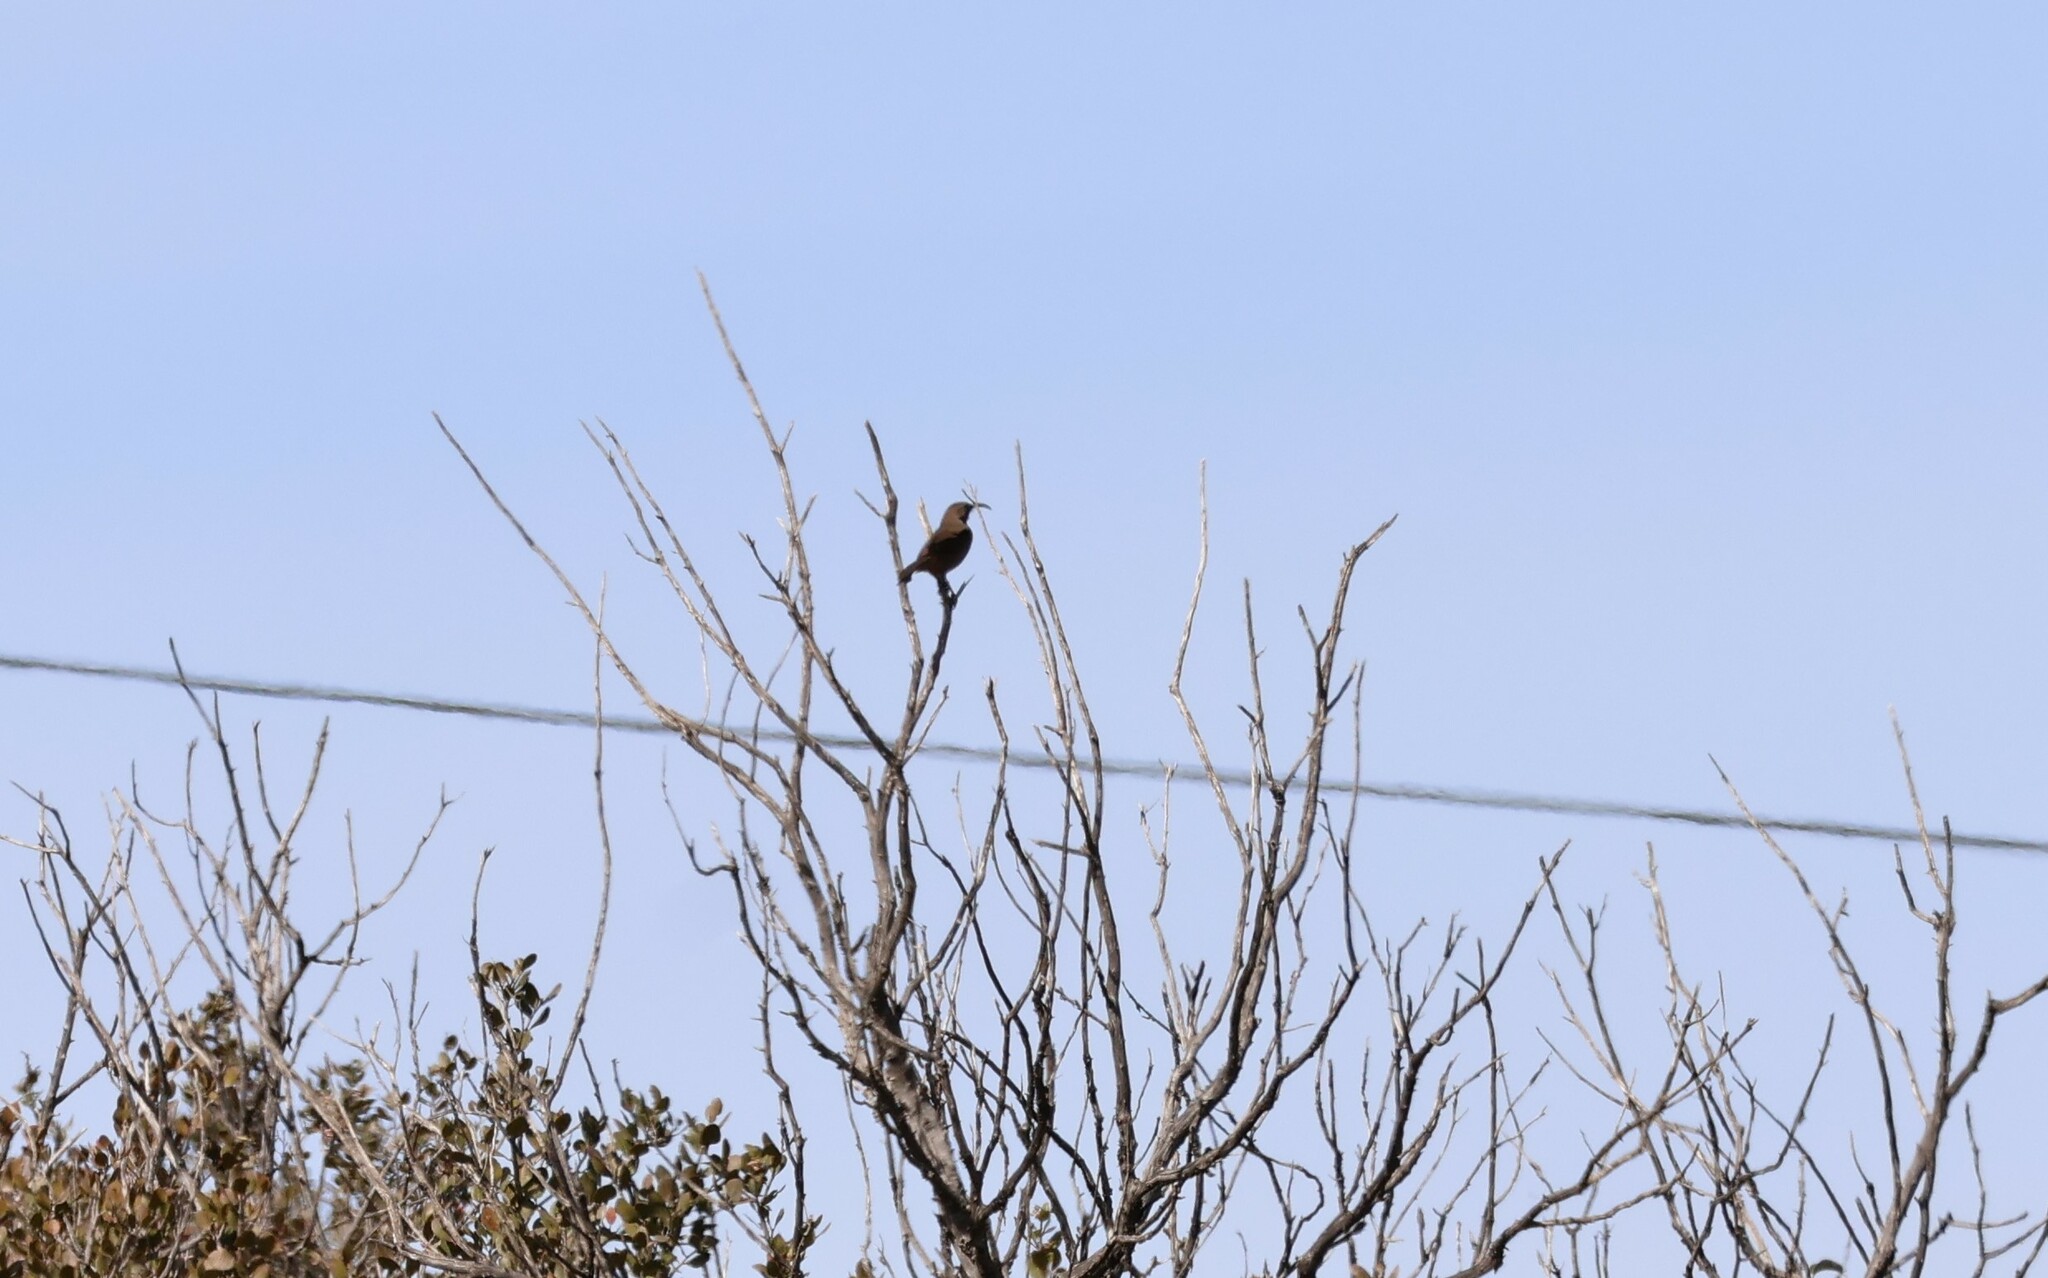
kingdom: Animalia
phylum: Chordata
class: Aves
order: Passeriformes
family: Mimidae
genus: Toxostoma
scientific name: Toxostoma redivivum
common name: California thrasher
